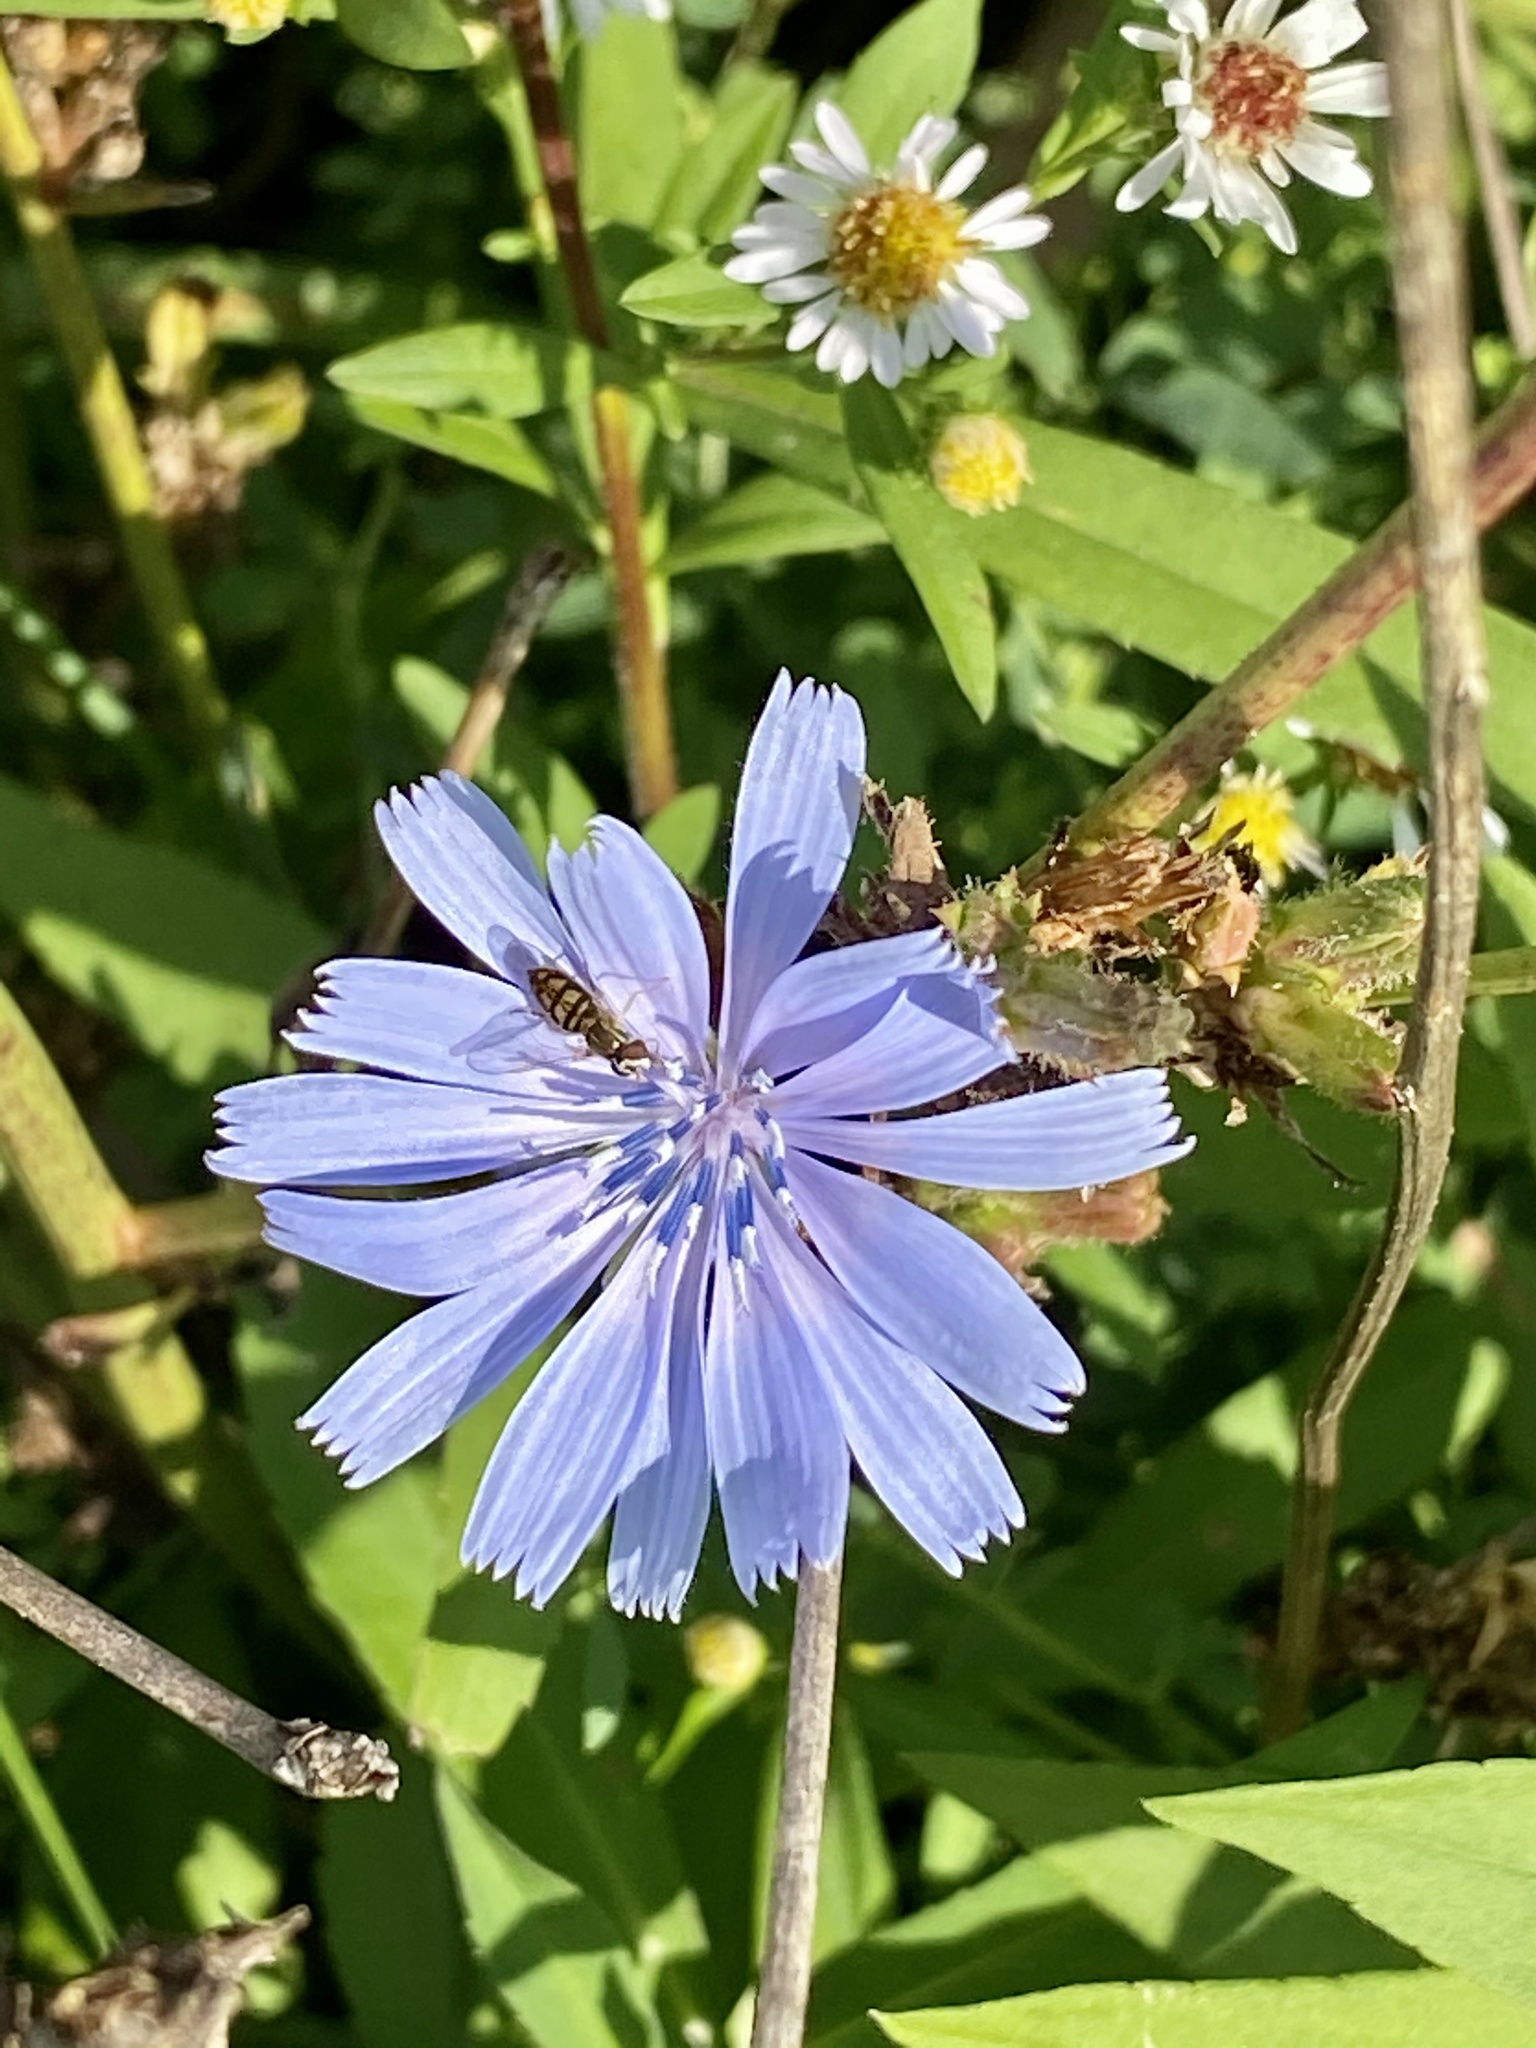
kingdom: Plantae
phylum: Tracheophyta
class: Magnoliopsida
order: Asterales
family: Asteraceae
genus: Cichorium
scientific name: Cichorium intybus
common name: Chicory
